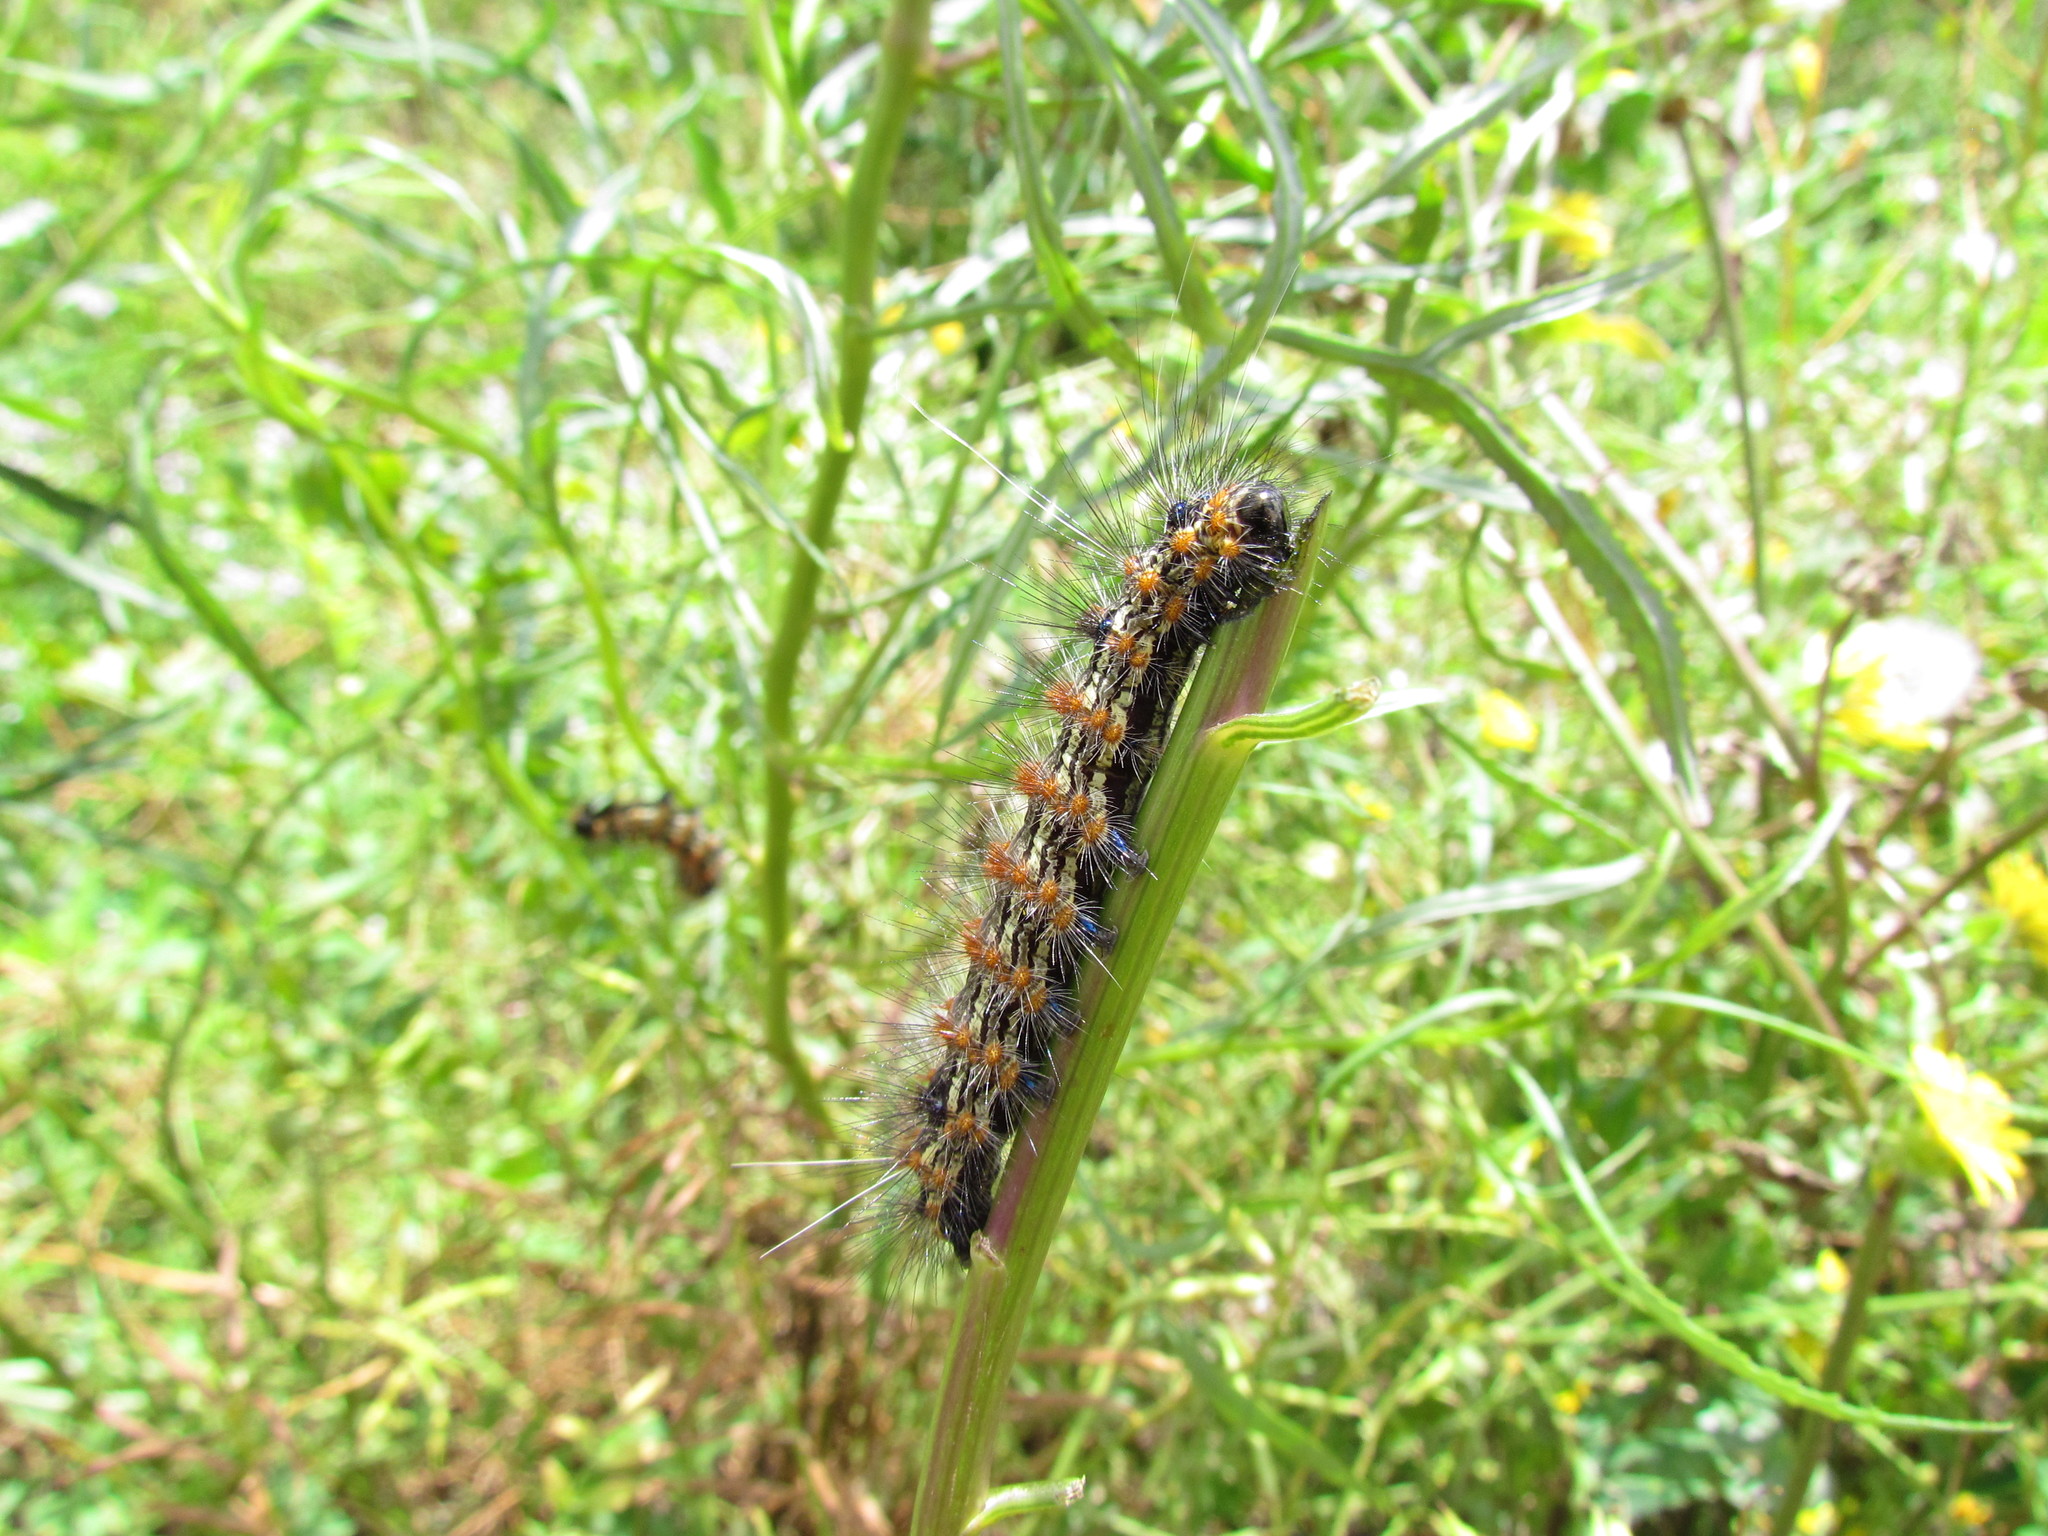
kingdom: Animalia
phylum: Arthropoda
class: Insecta
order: Lepidoptera
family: Erebidae
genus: Dysschema
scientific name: Dysschema sacrifica
